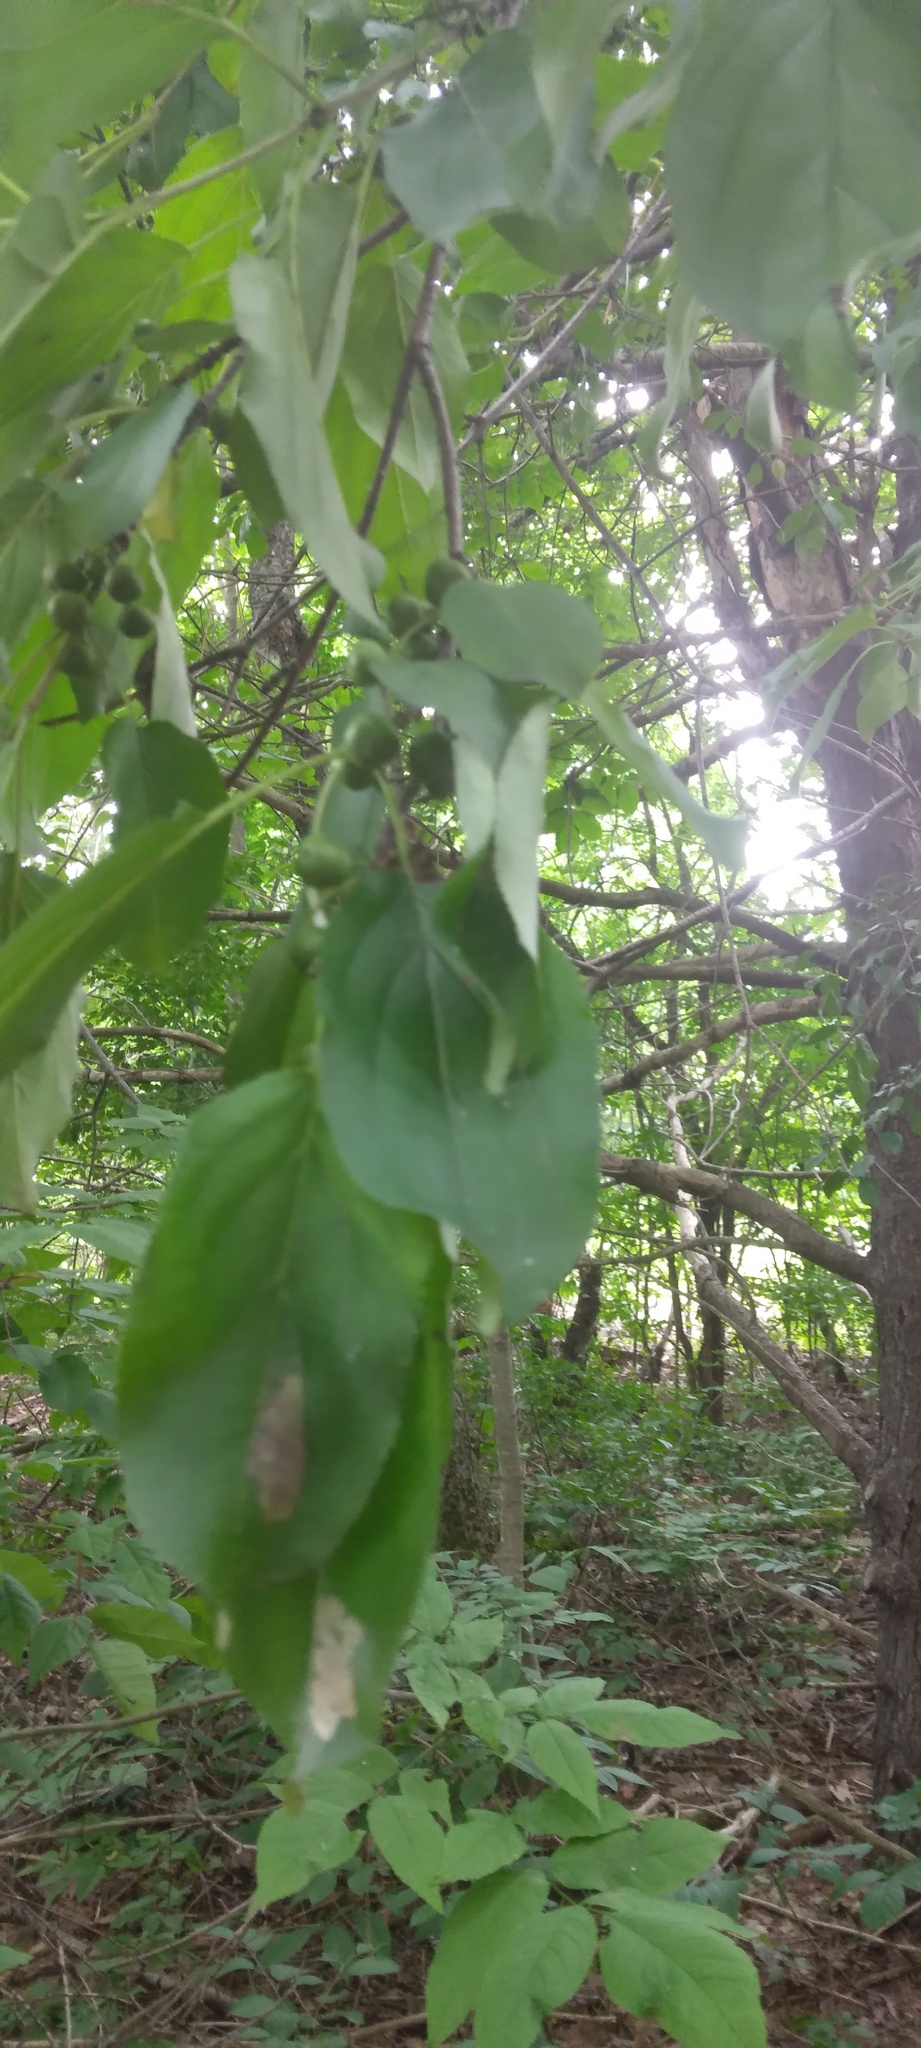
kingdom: Plantae
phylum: Tracheophyta
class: Magnoliopsida
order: Rosales
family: Rhamnaceae
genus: Rhamnus
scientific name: Rhamnus cathartica
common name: Common buckthorn
